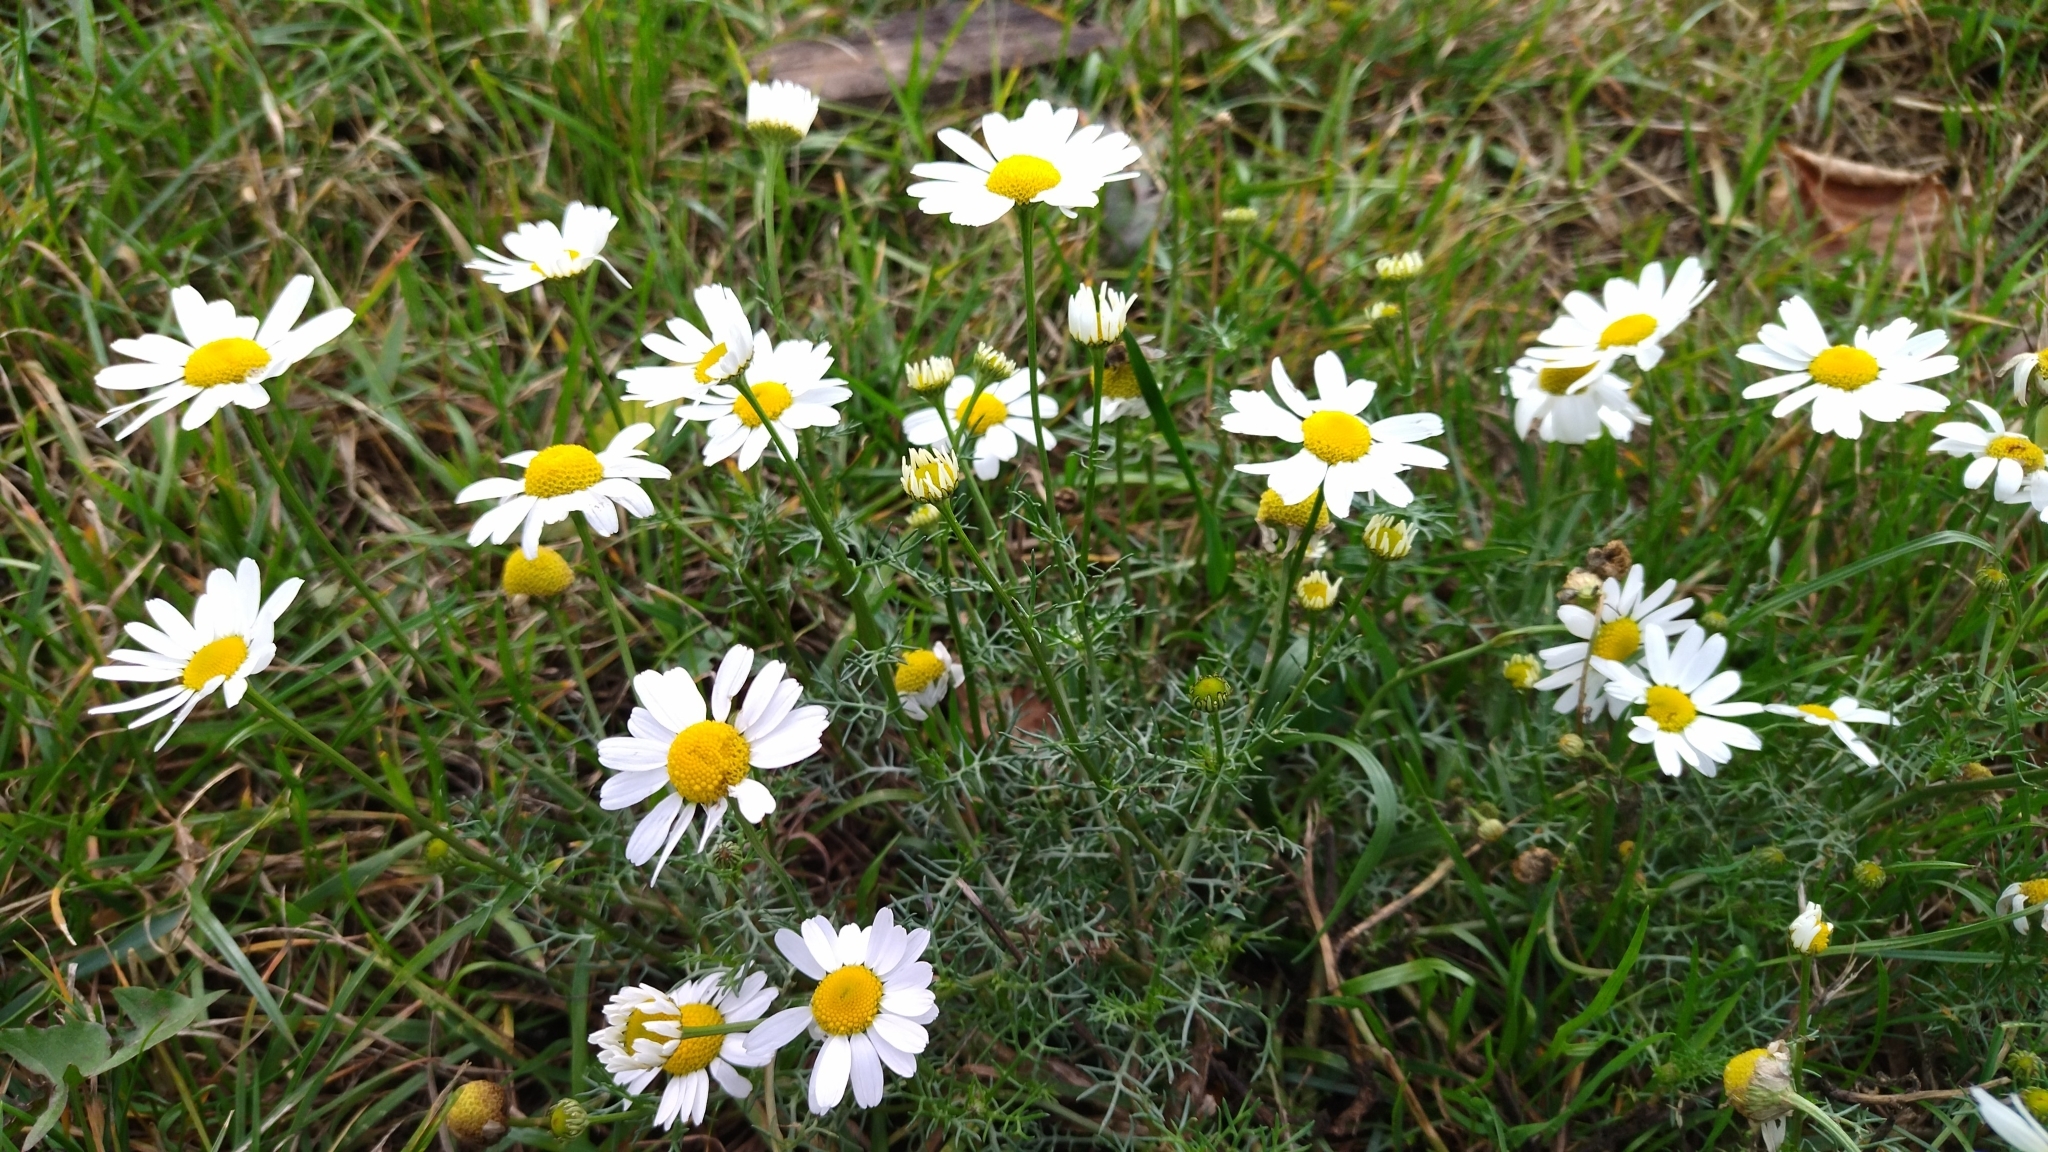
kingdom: Plantae
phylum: Tracheophyta
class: Magnoliopsida
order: Asterales
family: Asteraceae
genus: Tripleurospermum
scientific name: Tripleurospermum inodorum
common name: Scentless mayweed
